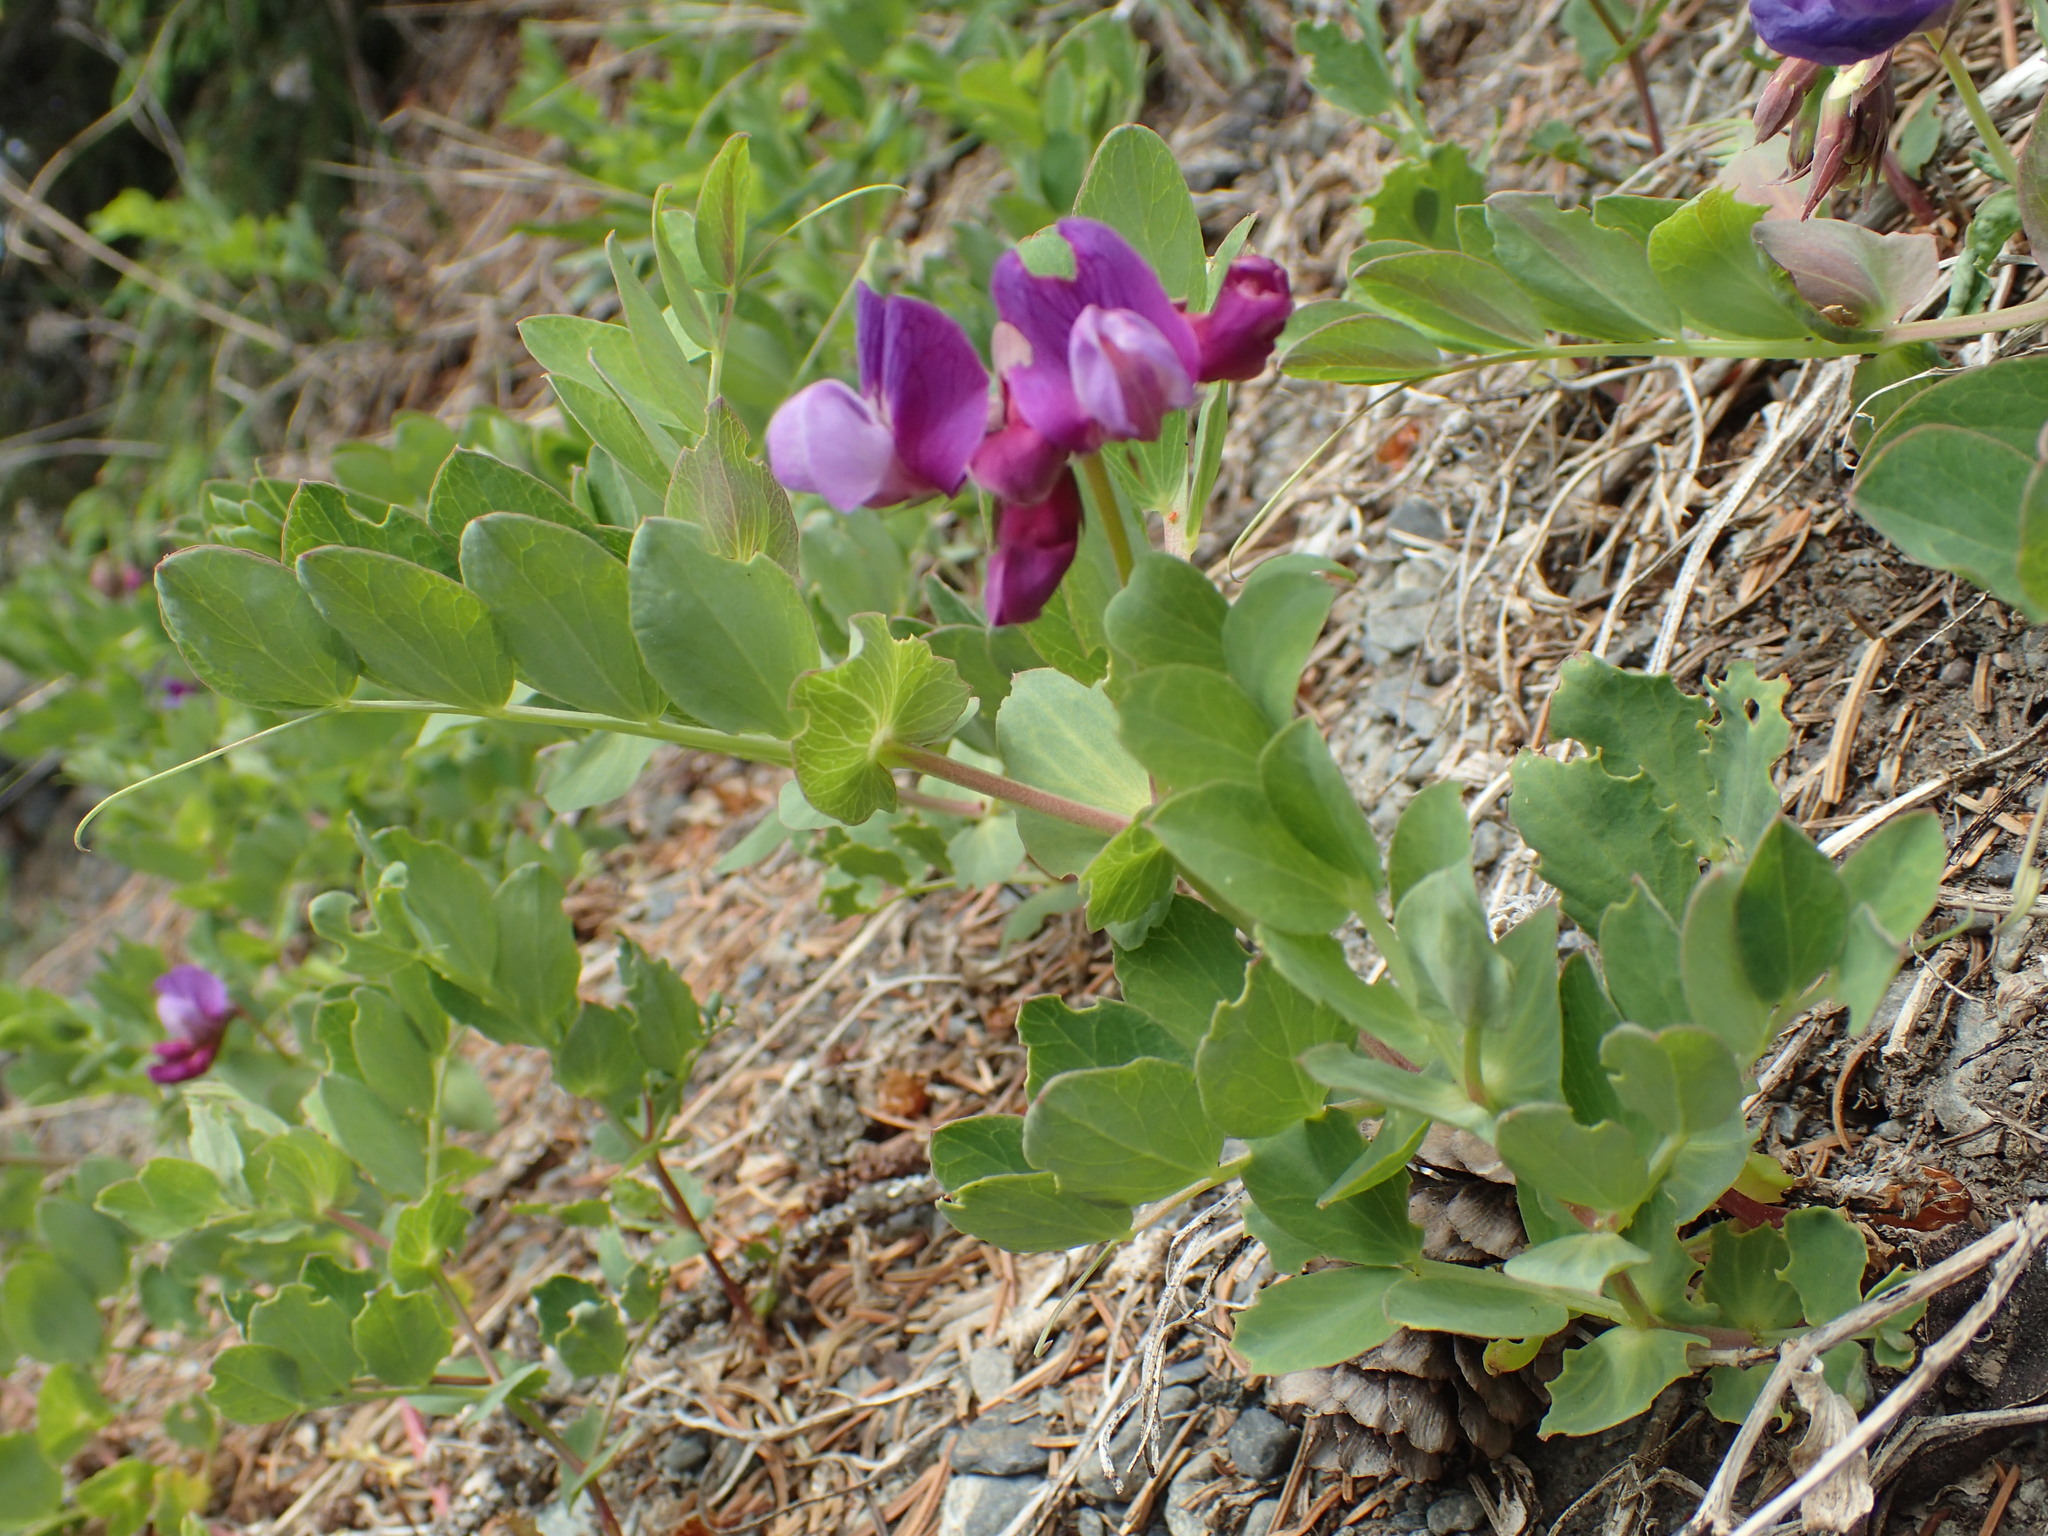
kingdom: Plantae
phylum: Tracheophyta
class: Magnoliopsida
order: Fabales
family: Fabaceae
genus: Lathyrus
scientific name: Lathyrus japonicus
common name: Sea pea
